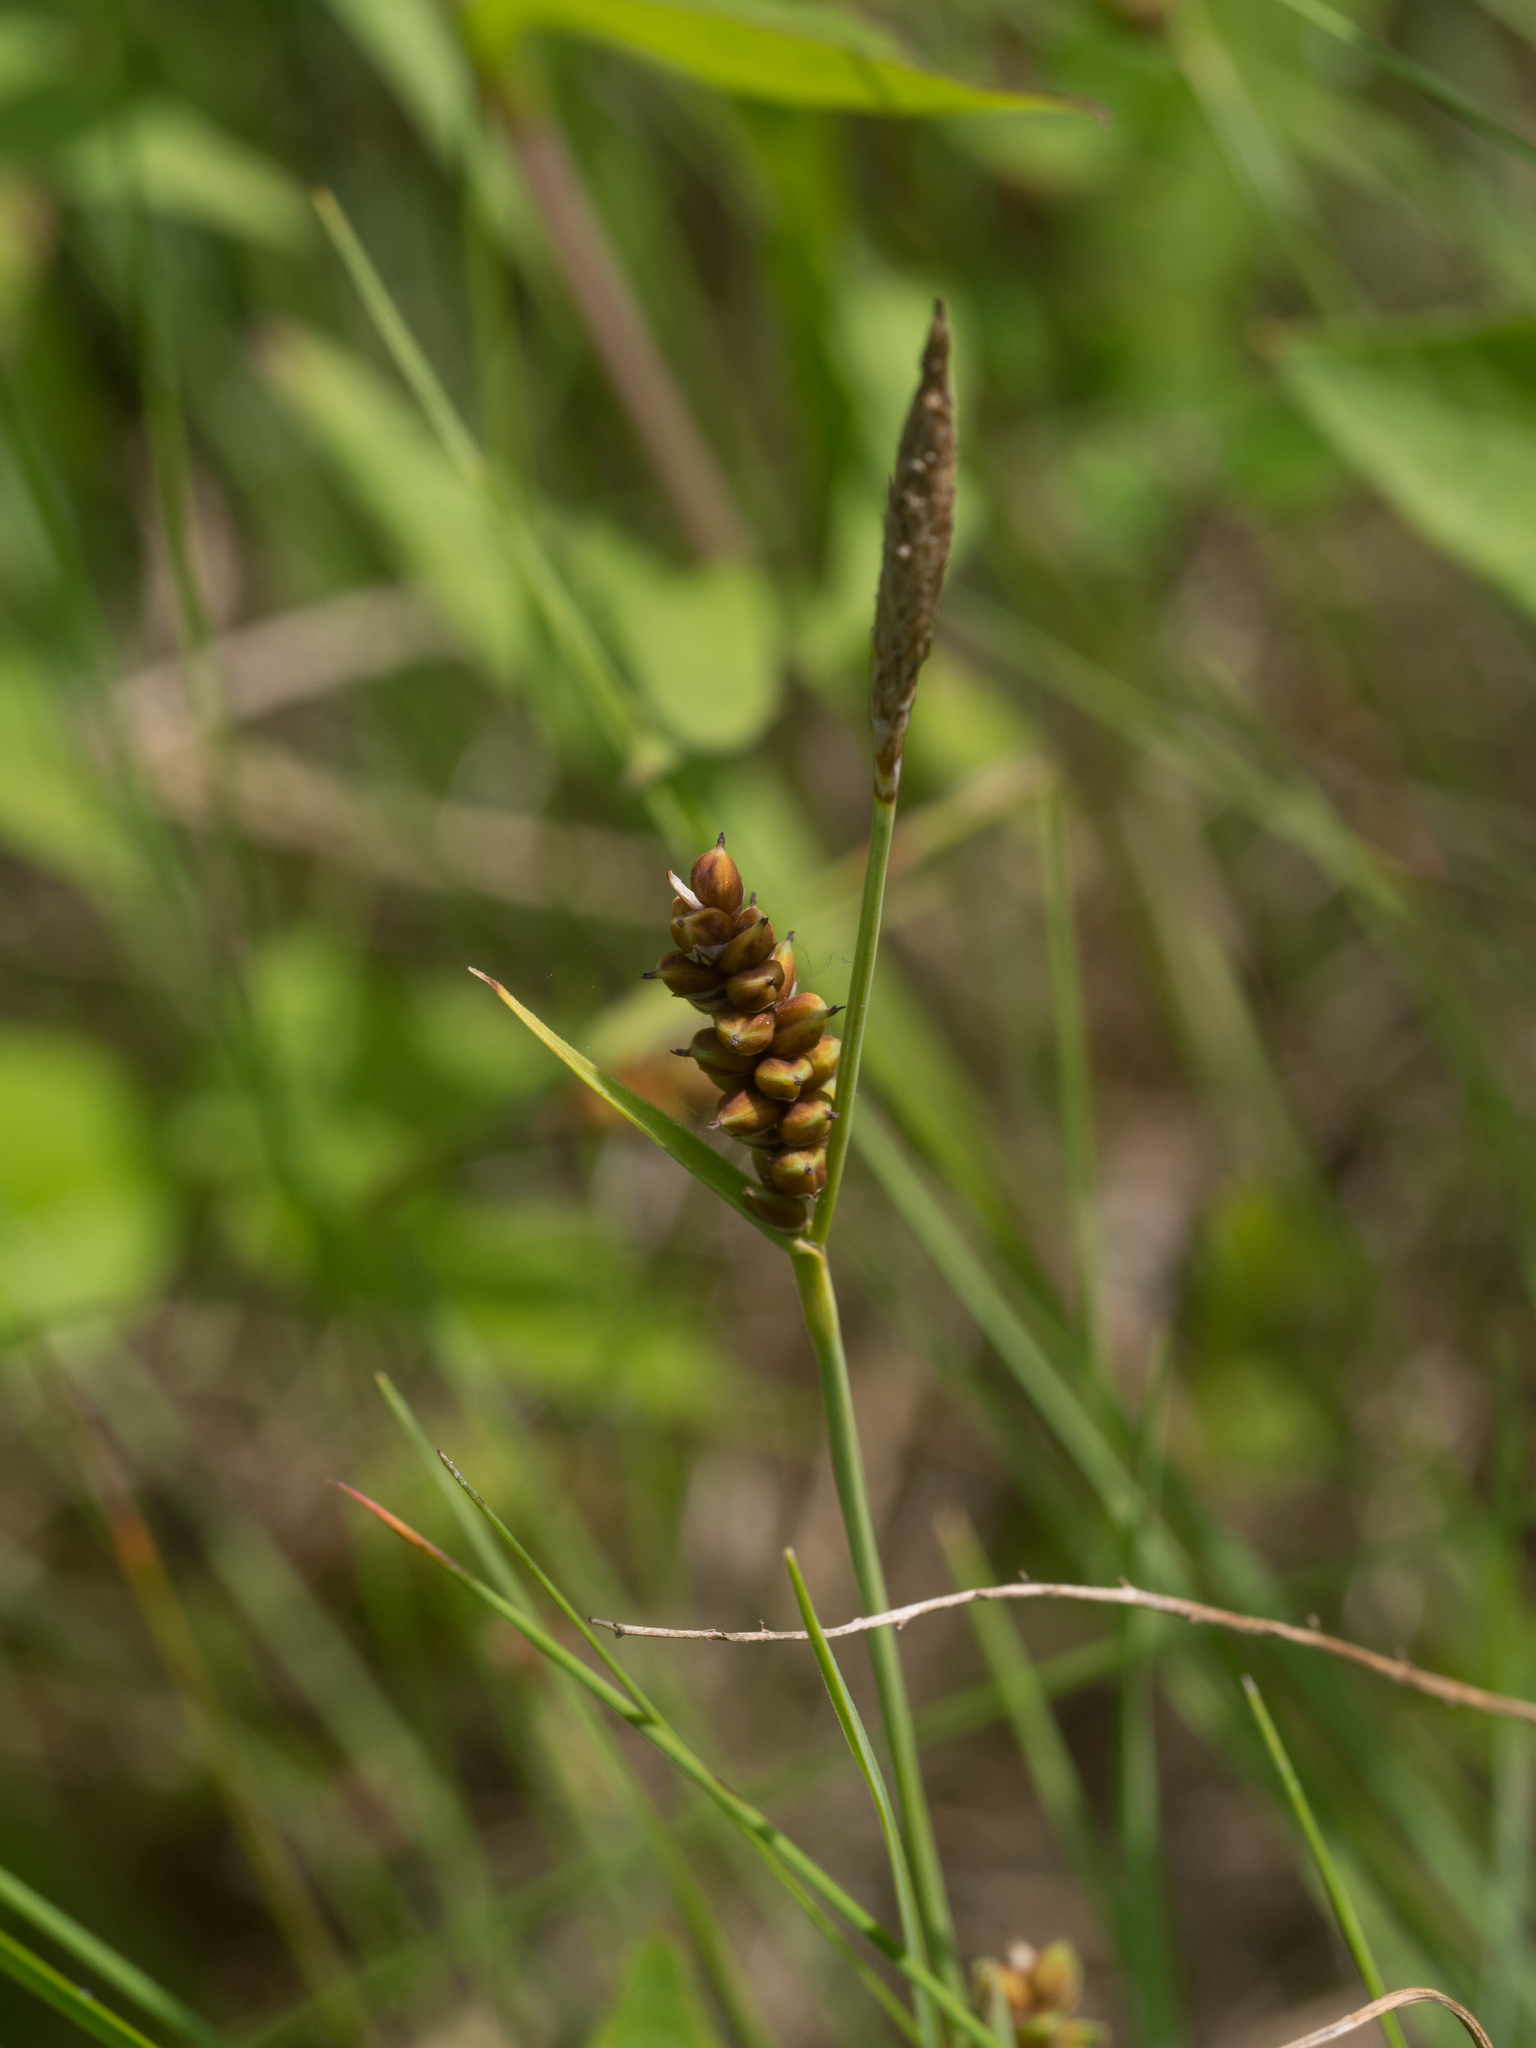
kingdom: Plantae
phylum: Tracheophyta
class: Liliopsida
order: Poales
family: Cyperaceae
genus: Carex
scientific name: Carex panicea
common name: Carnation sedge
